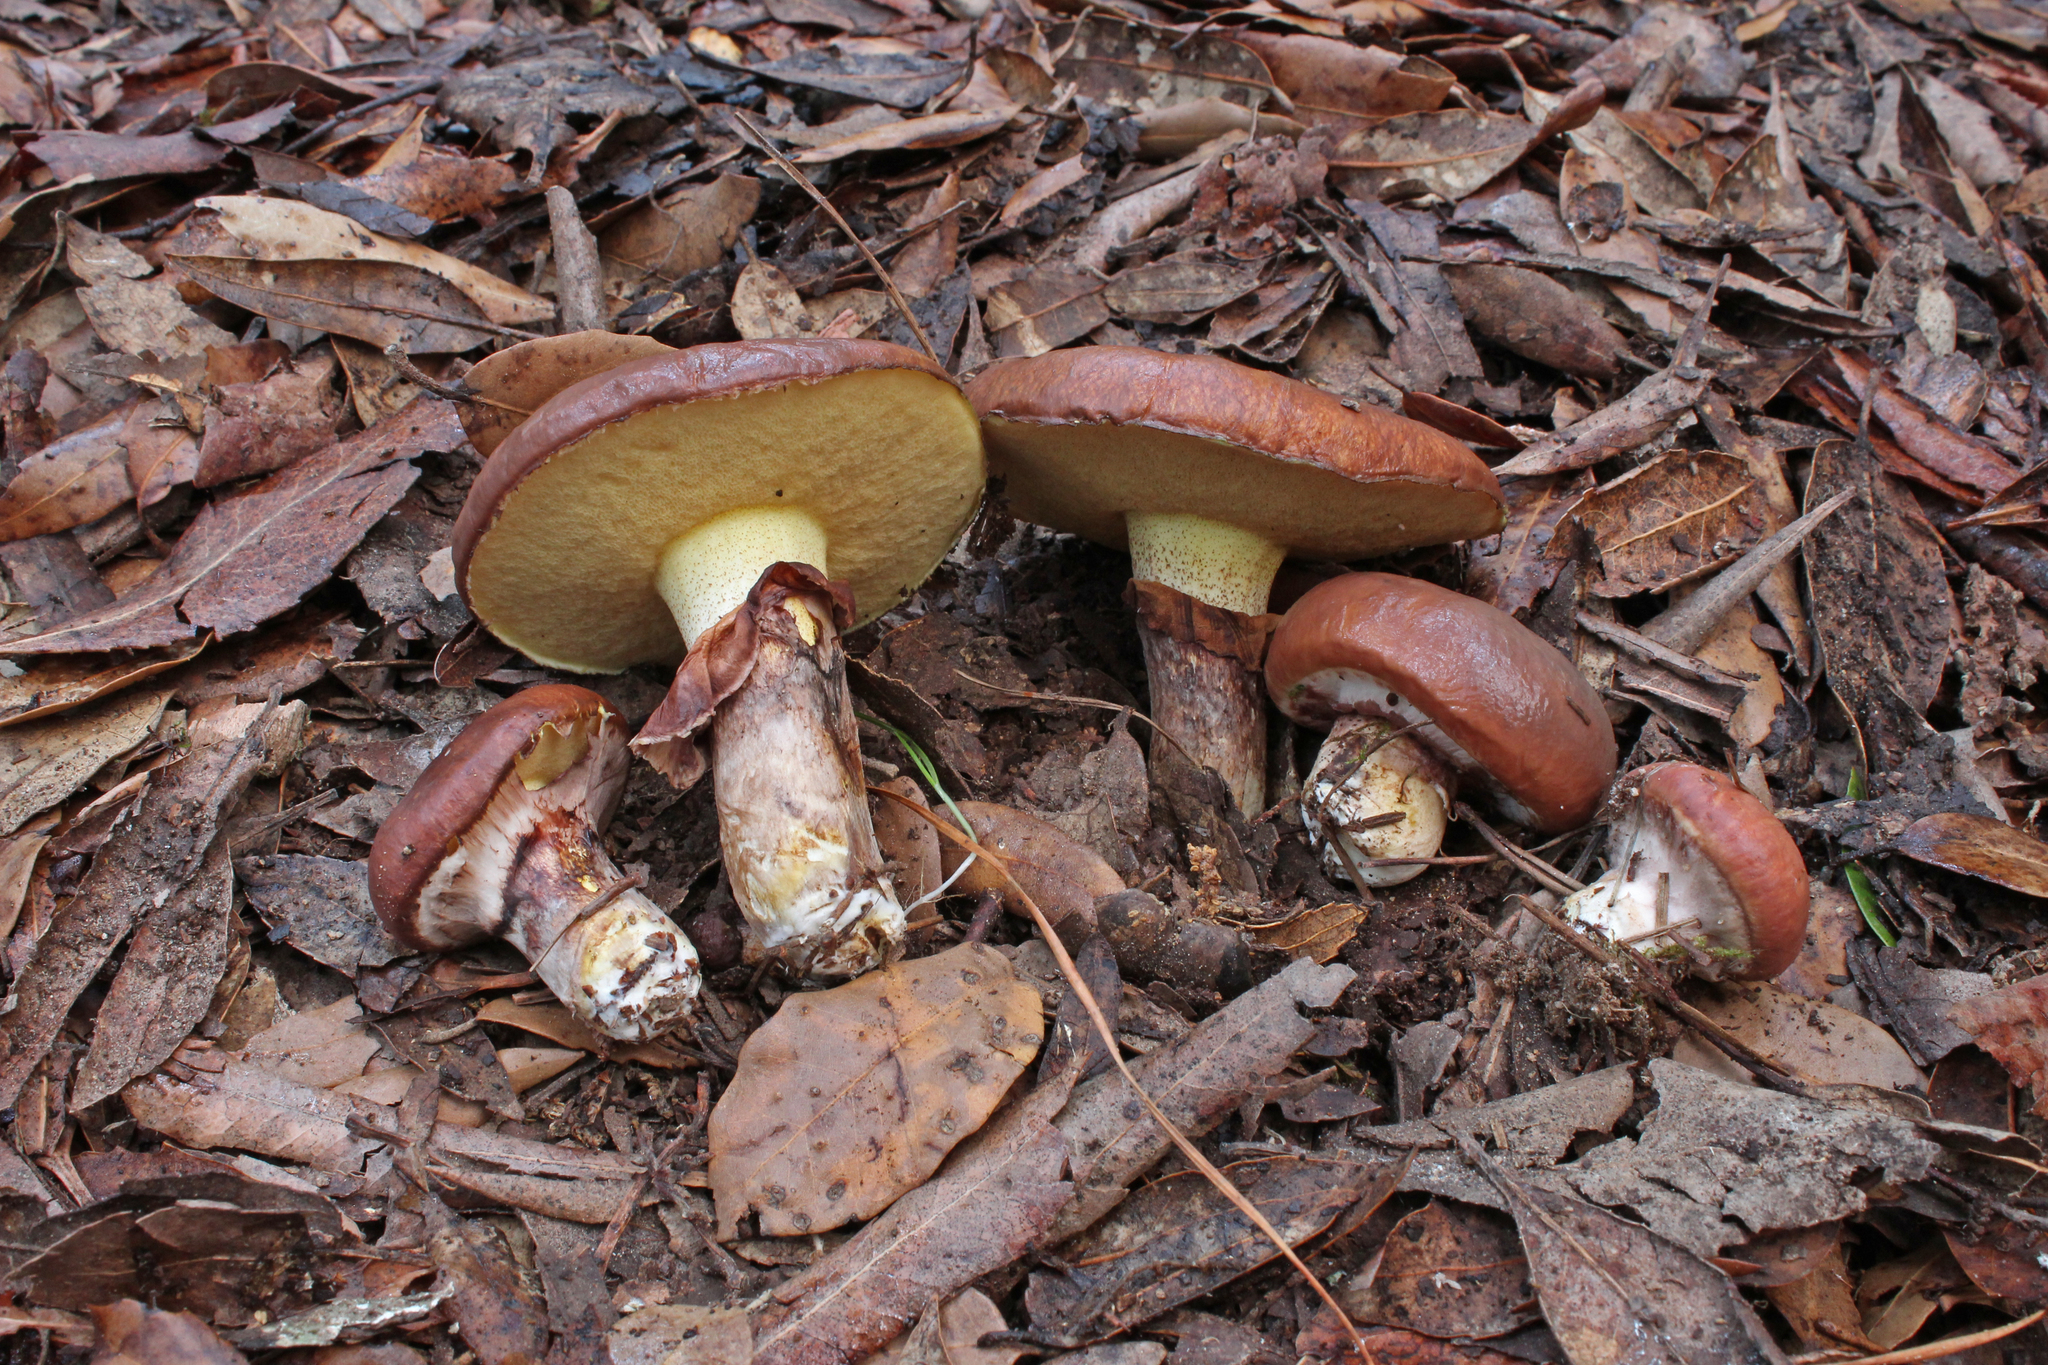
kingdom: Fungi
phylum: Basidiomycota
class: Agaricomycetes
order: Boletales
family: Suillaceae
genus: Suillus
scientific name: Suillus luteus
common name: Slippery jack
